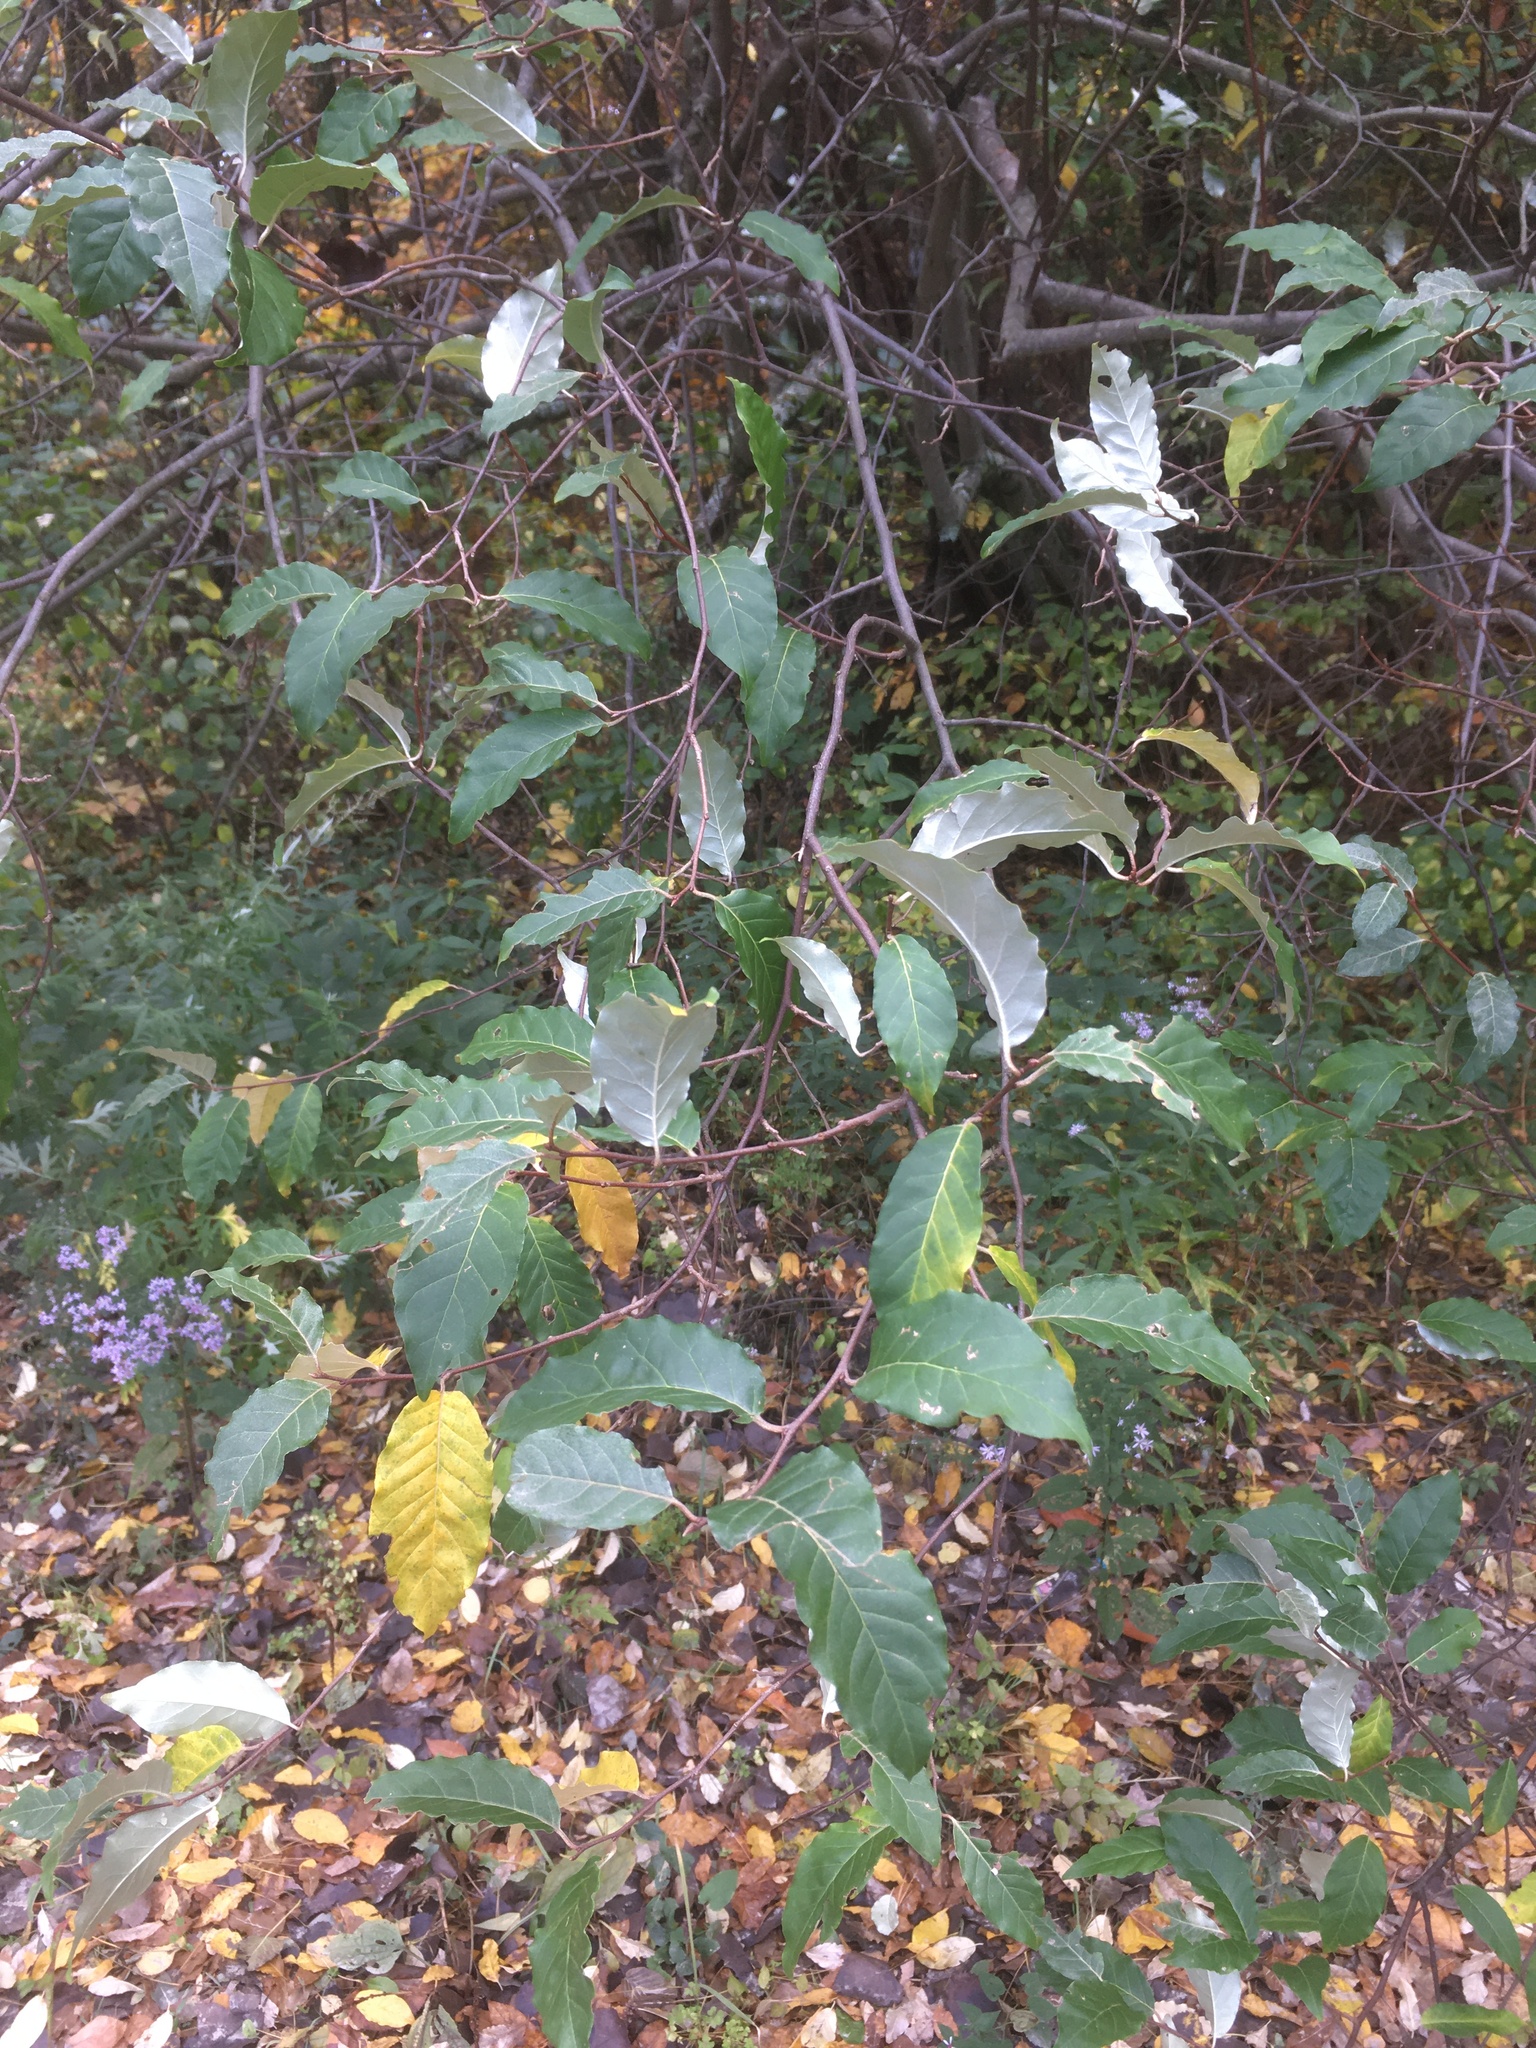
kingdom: Plantae
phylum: Tracheophyta
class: Magnoliopsida
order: Rosales
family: Elaeagnaceae
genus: Elaeagnus
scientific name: Elaeagnus umbellata
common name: Autumn olive
